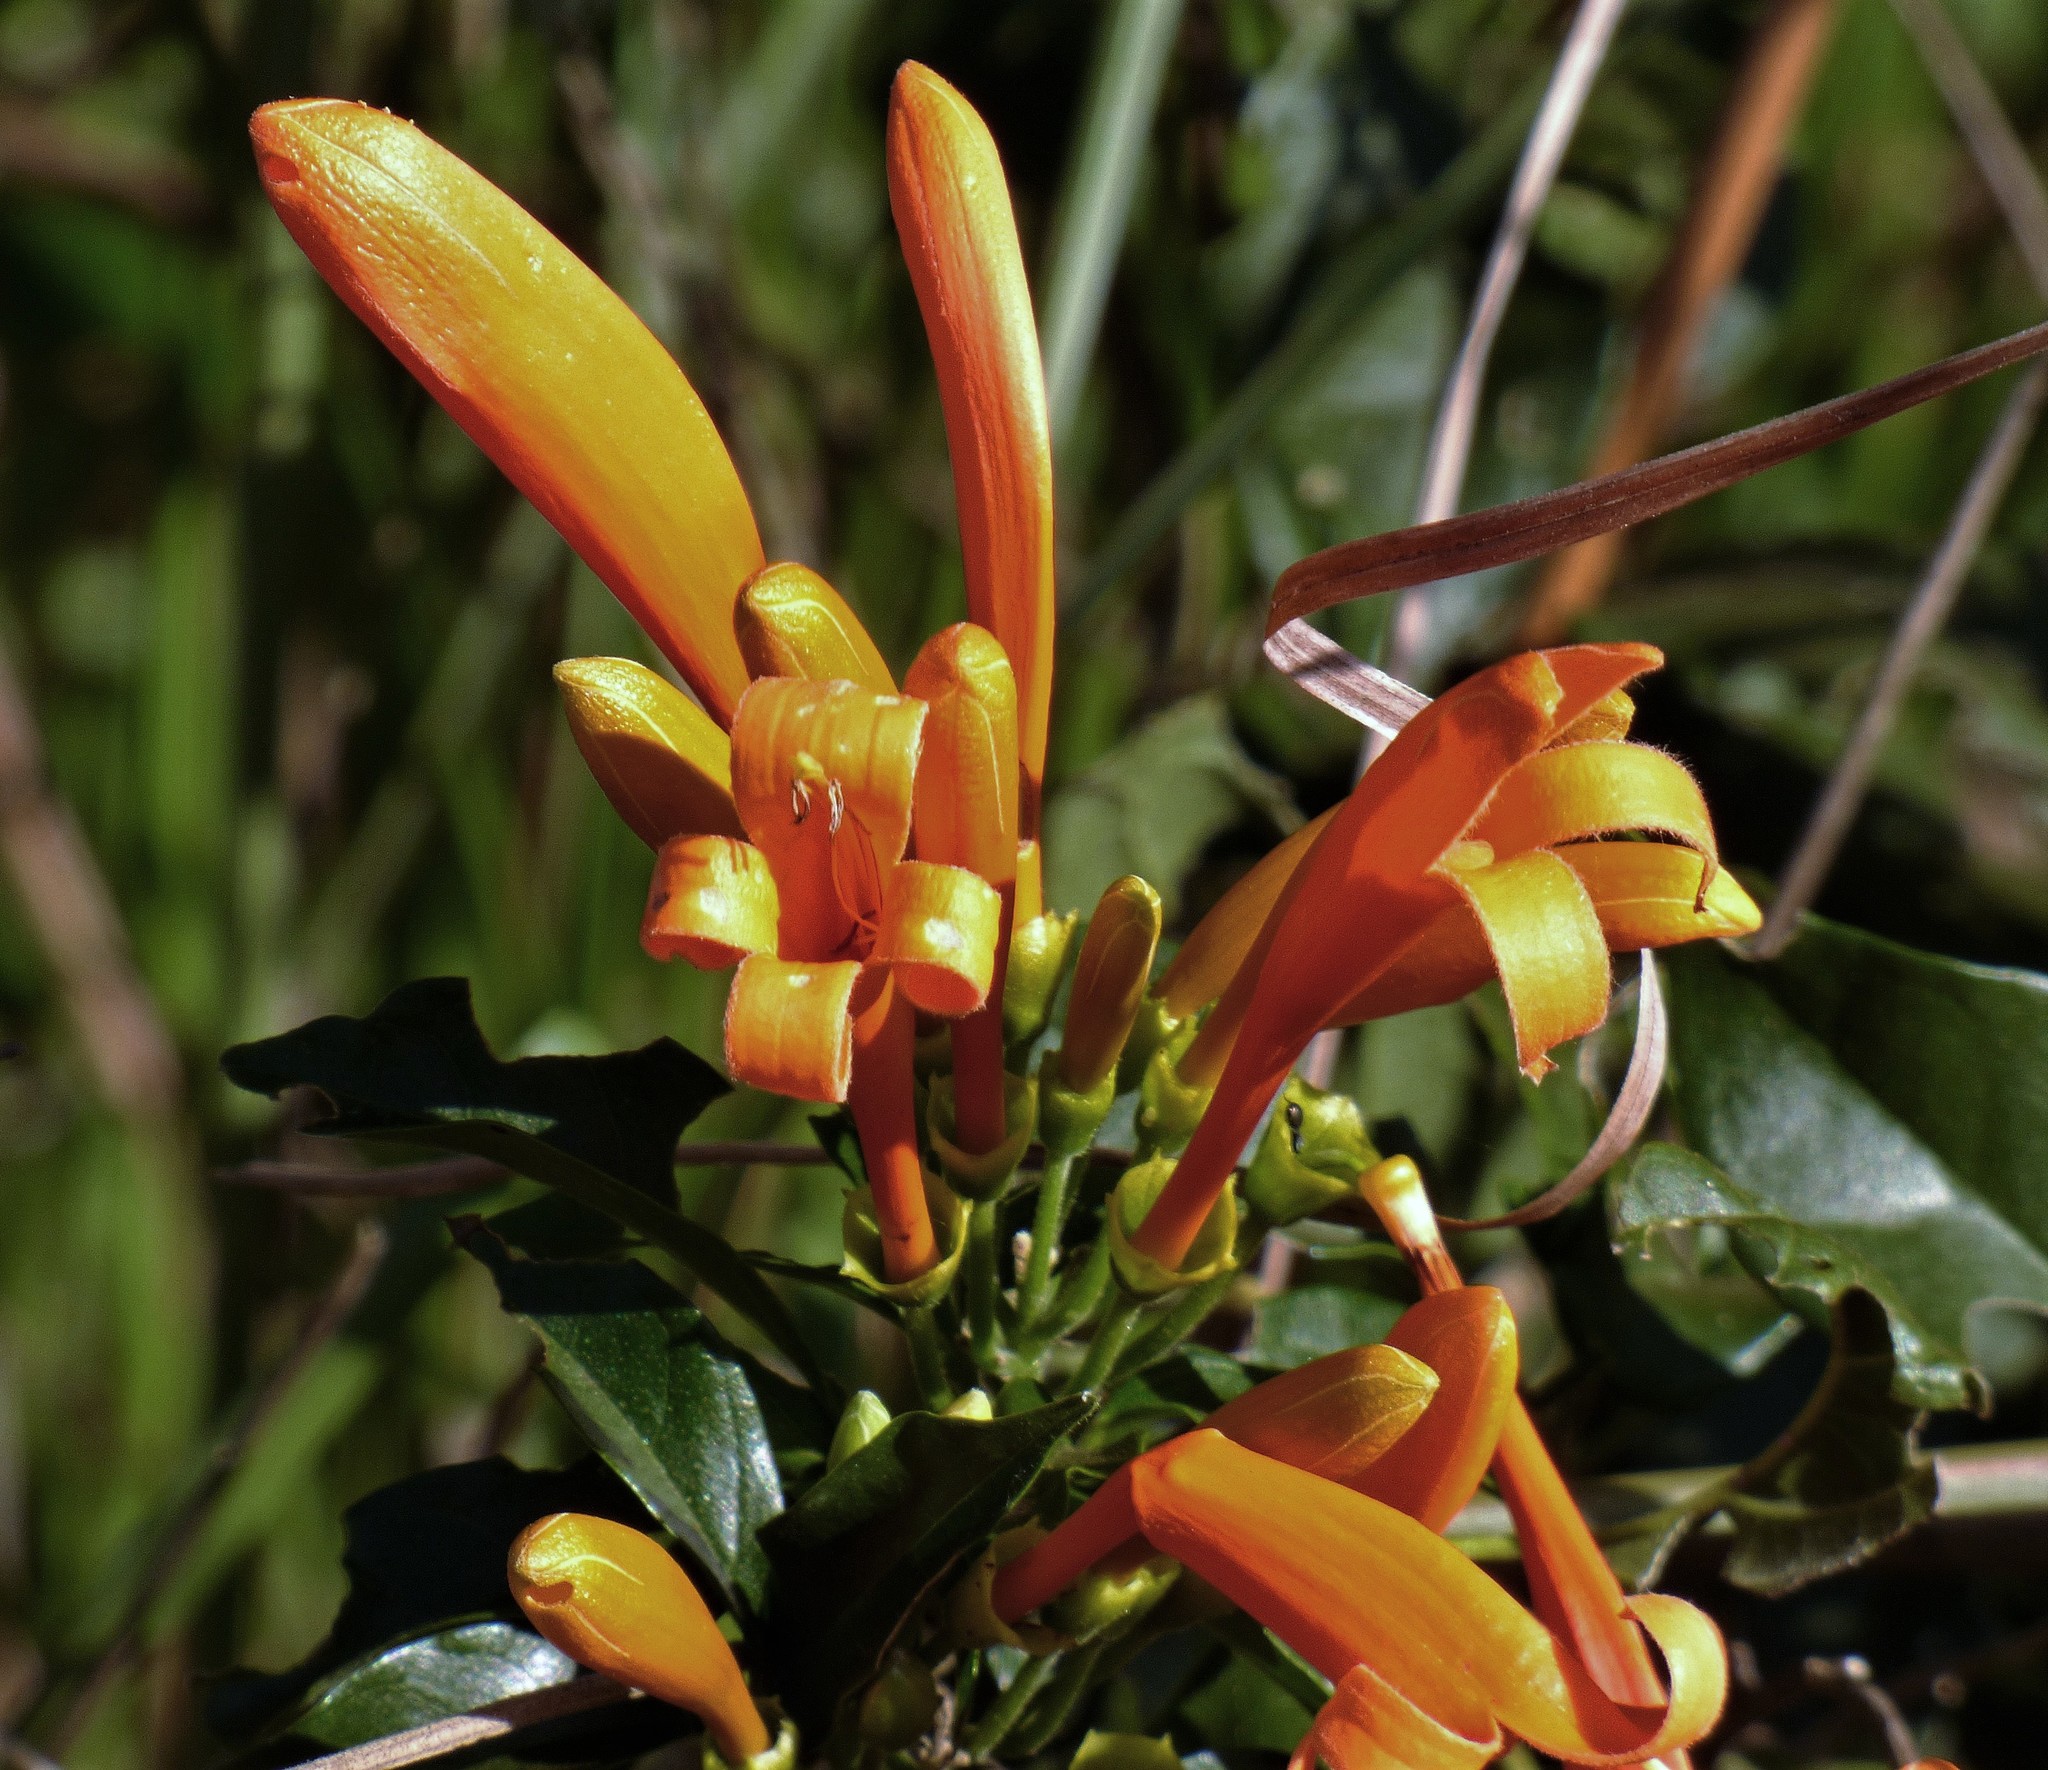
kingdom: Plantae
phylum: Tracheophyta
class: Magnoliopsida
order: Lamiales
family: Bignoniaceae
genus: Pyrostegia
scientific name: Pyrostegia venusta
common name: Flamevine
